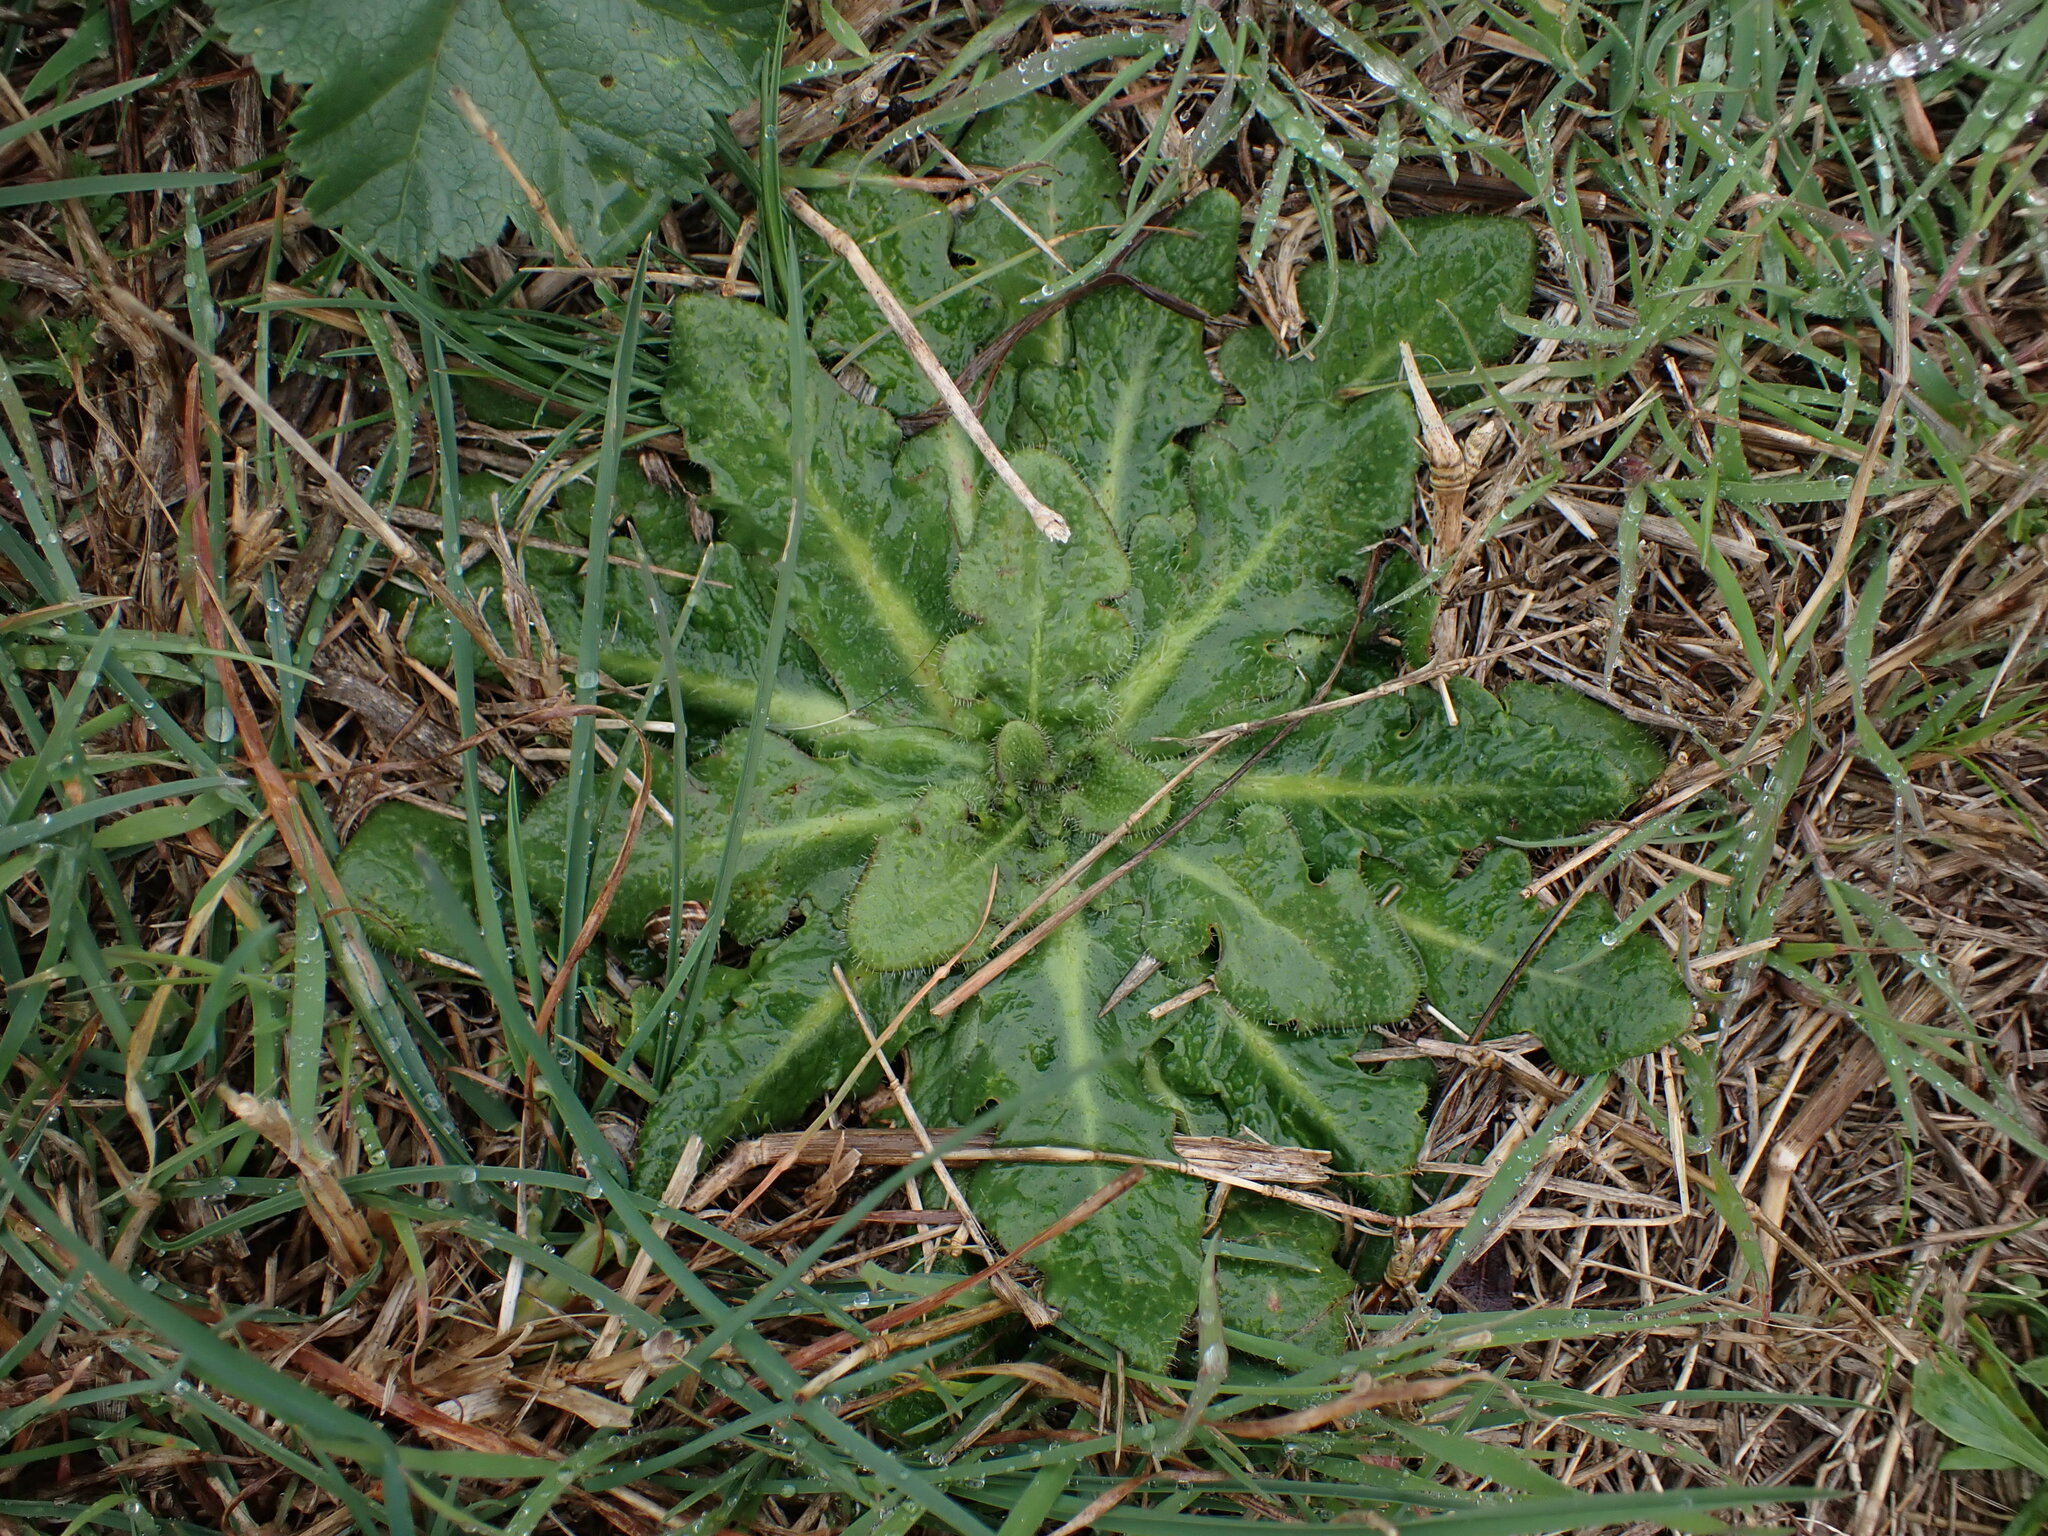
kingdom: Plantae
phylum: Tracheophyta
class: Magnoliopsida
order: Asterales
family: Asteraceae
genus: Hypochaeris
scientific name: Hypochaeris radicata
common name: Flatweed
